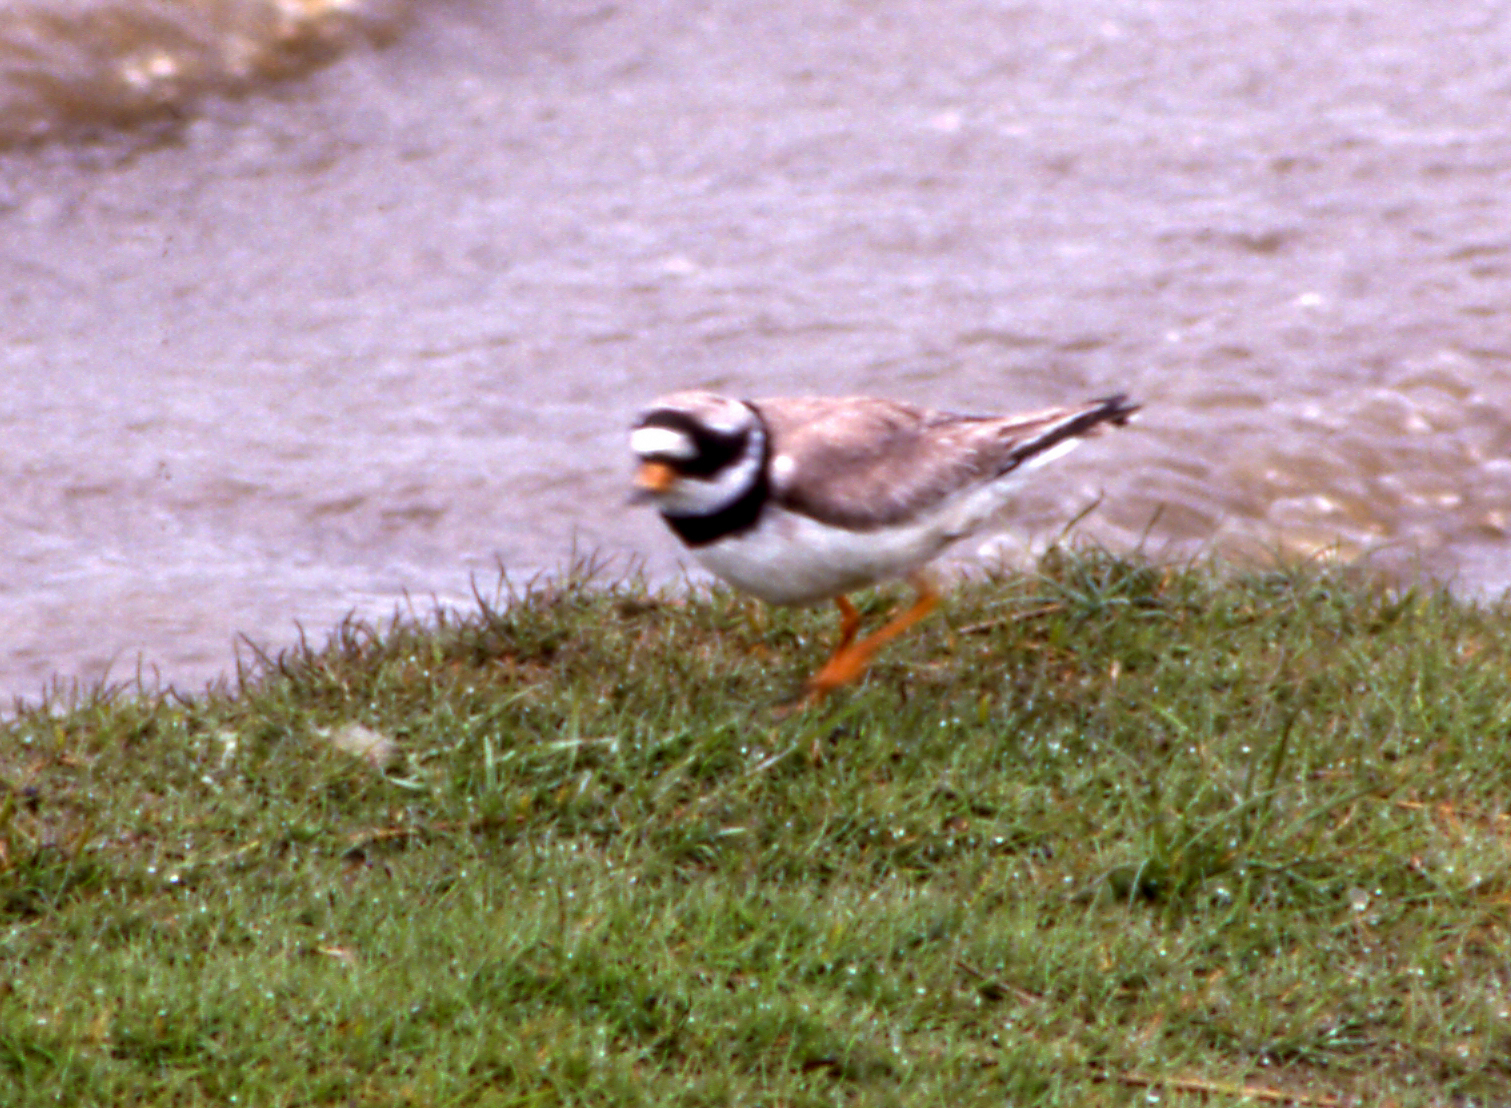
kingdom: Animalia
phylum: Chordata
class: Aves
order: Charadriiformes
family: Charadriidae
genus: Charadrius
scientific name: Charadrius hiaticula
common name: Common ringed plover
